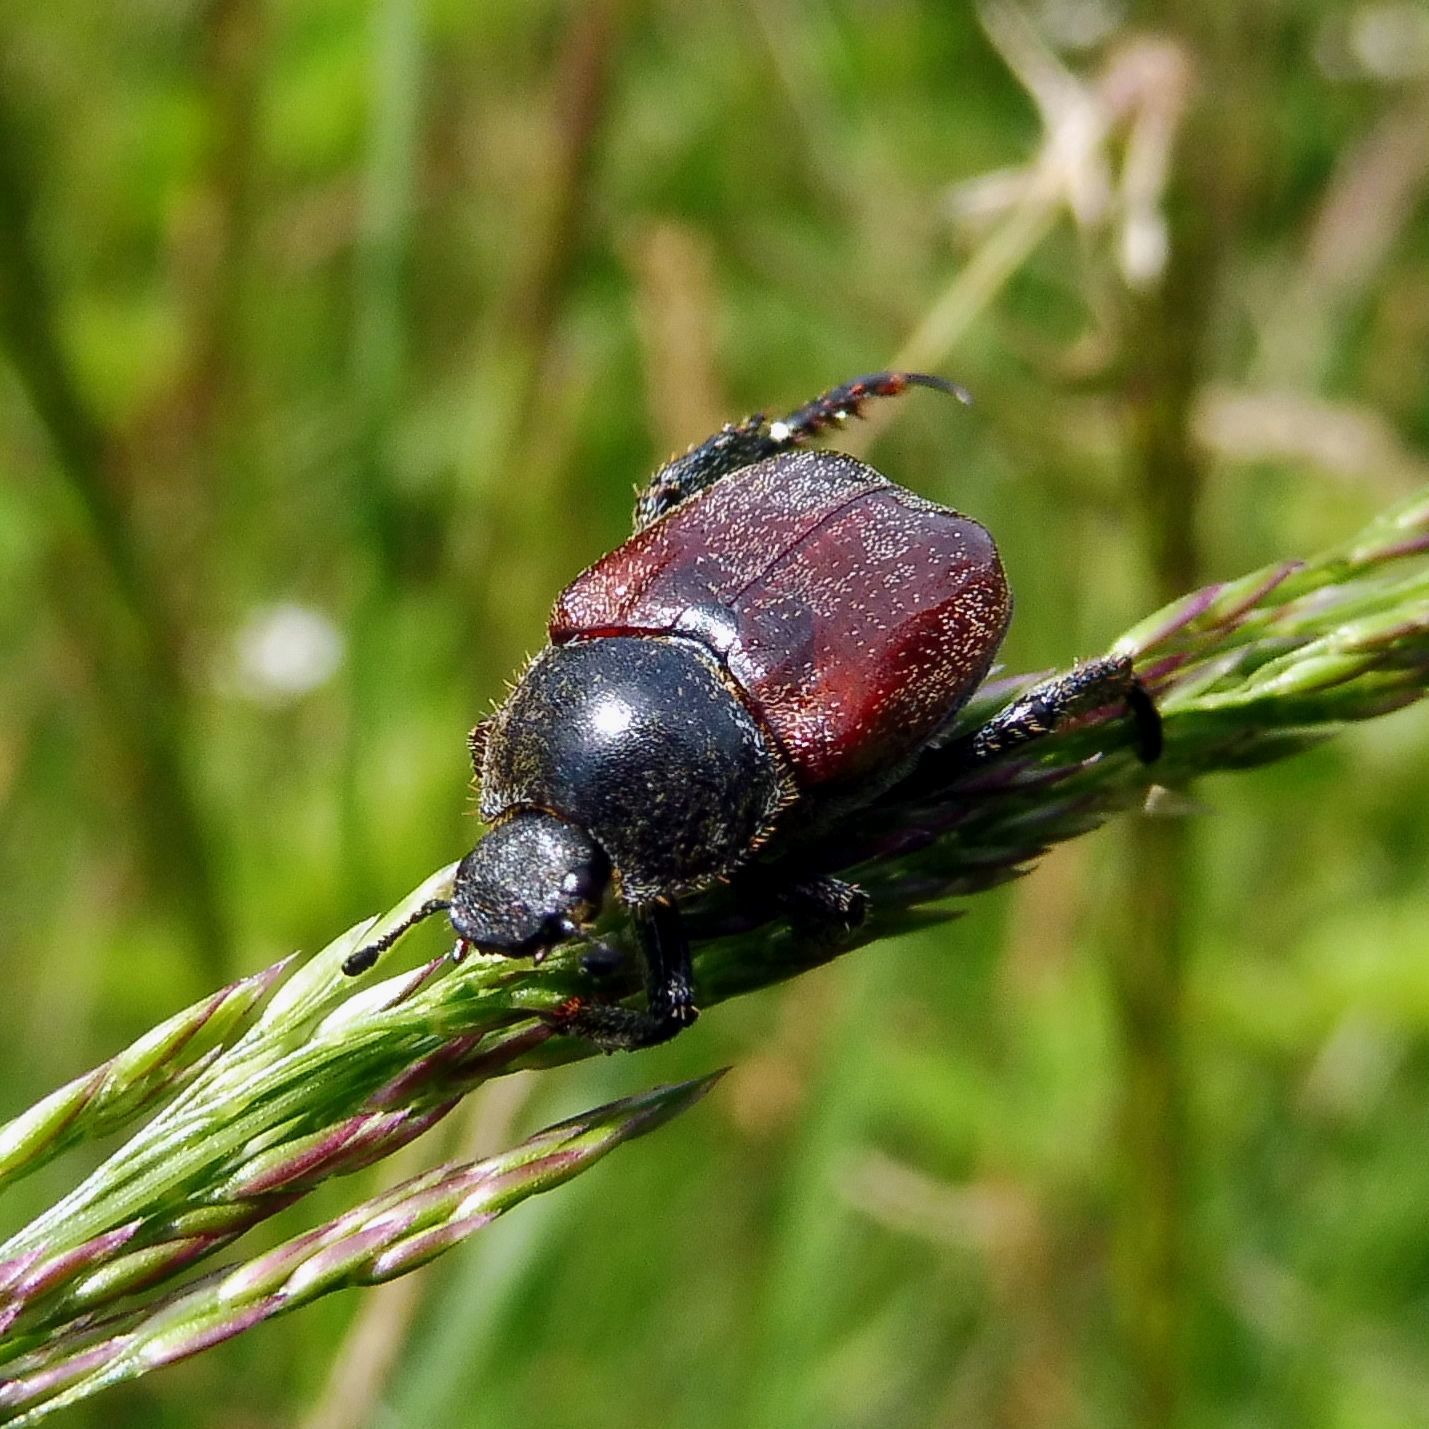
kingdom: Animalia
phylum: Arthropoda
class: Insecta
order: Coleoptera
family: Scarabaeidae
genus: Hoplia
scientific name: Hoplia philanthus
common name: Welsh chafer
